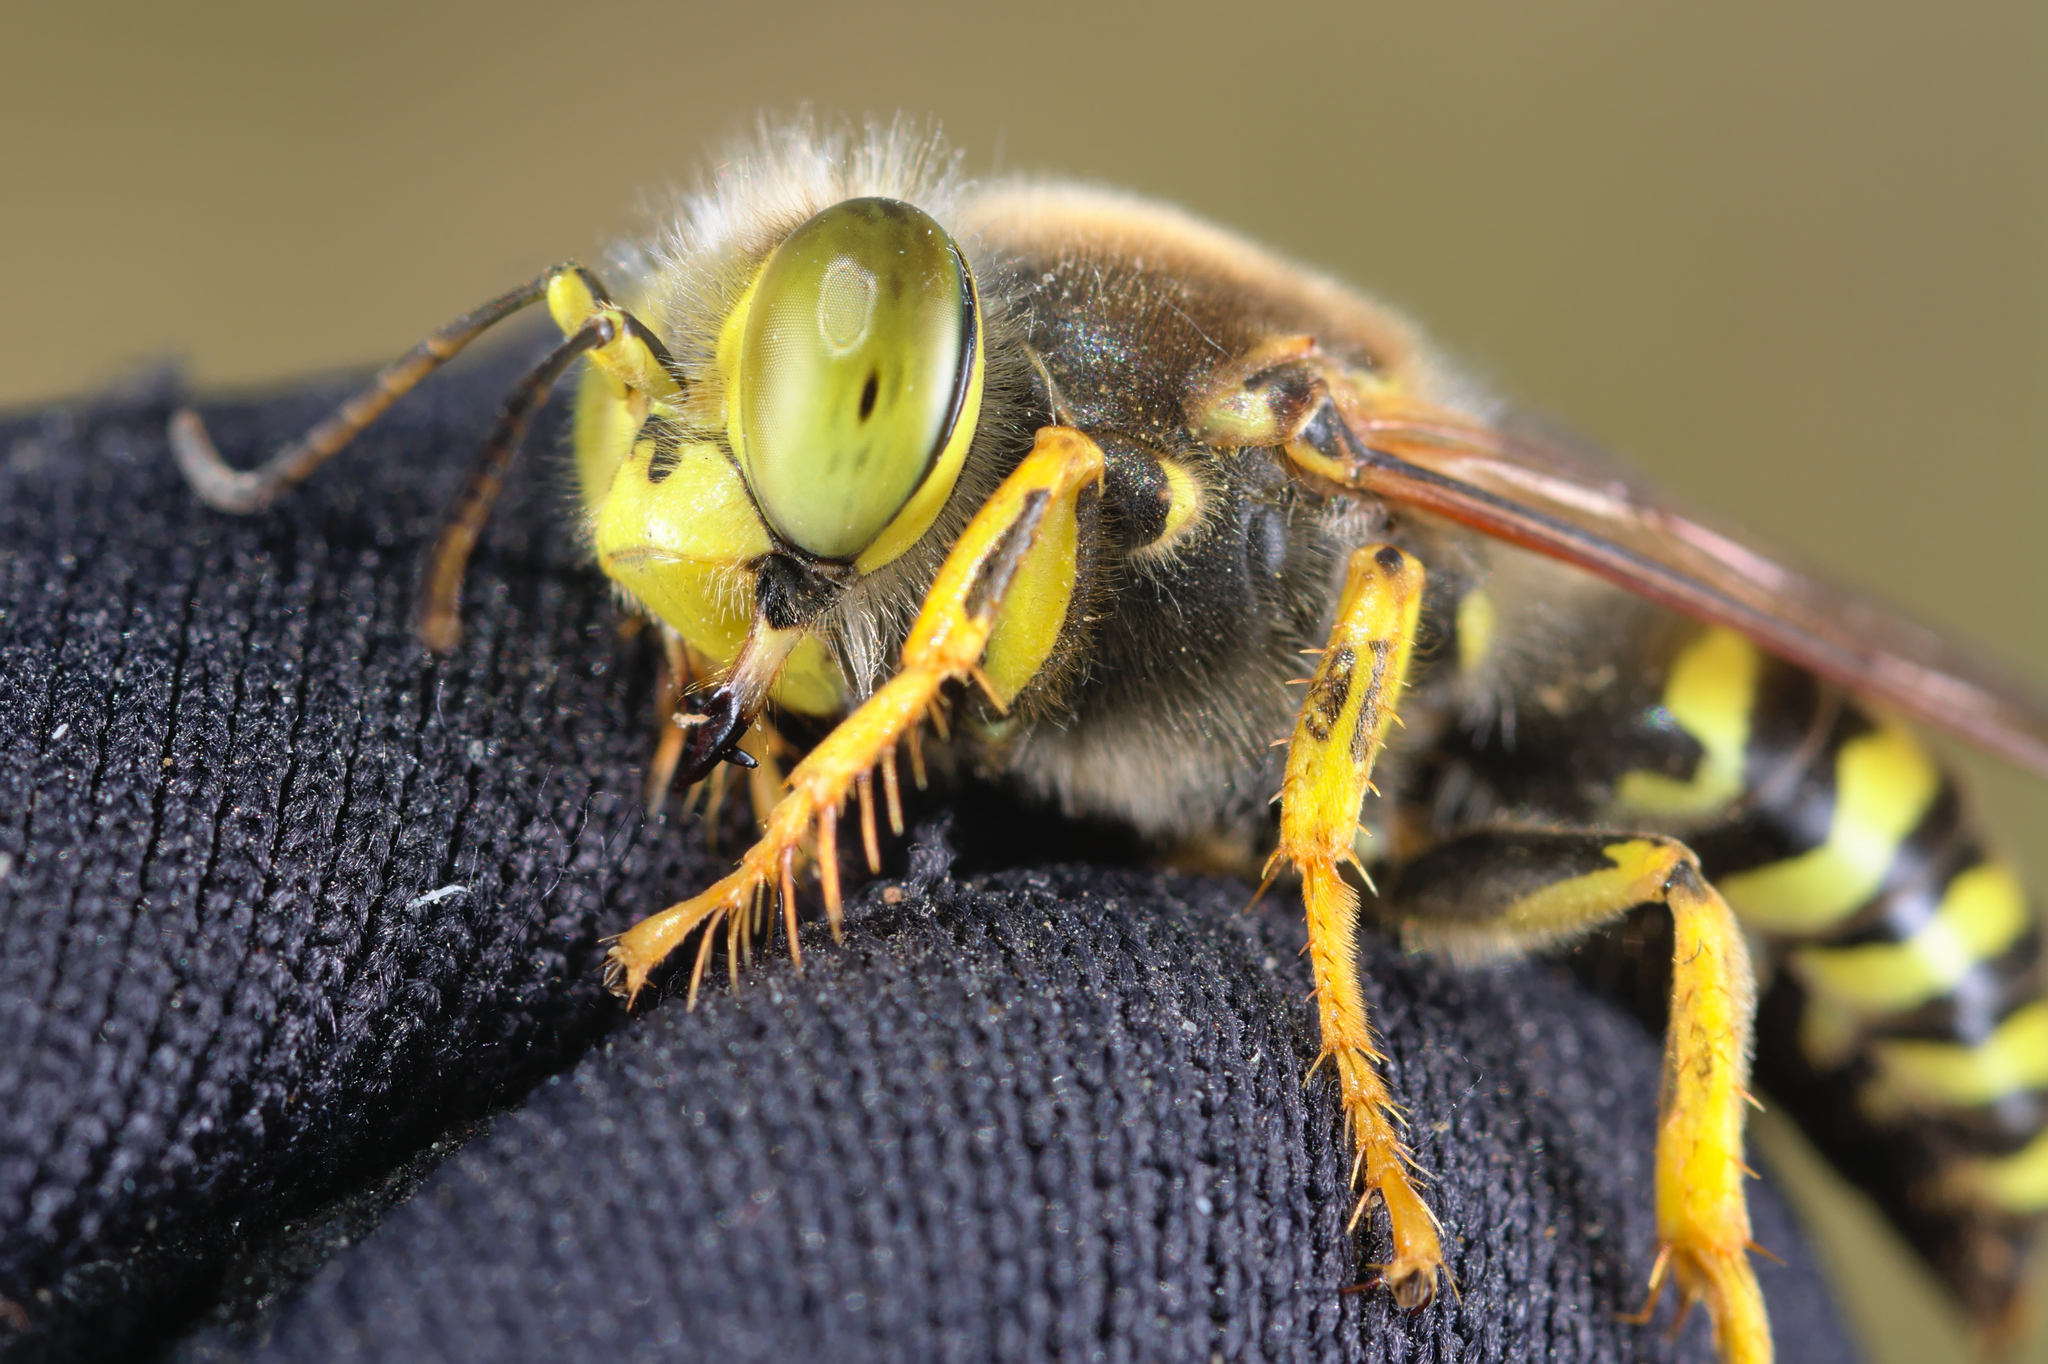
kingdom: Animalia
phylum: Arthropoda
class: Insecta
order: Hymenoptera
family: Crabronidae
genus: Bembix
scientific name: Bembix rostrata
